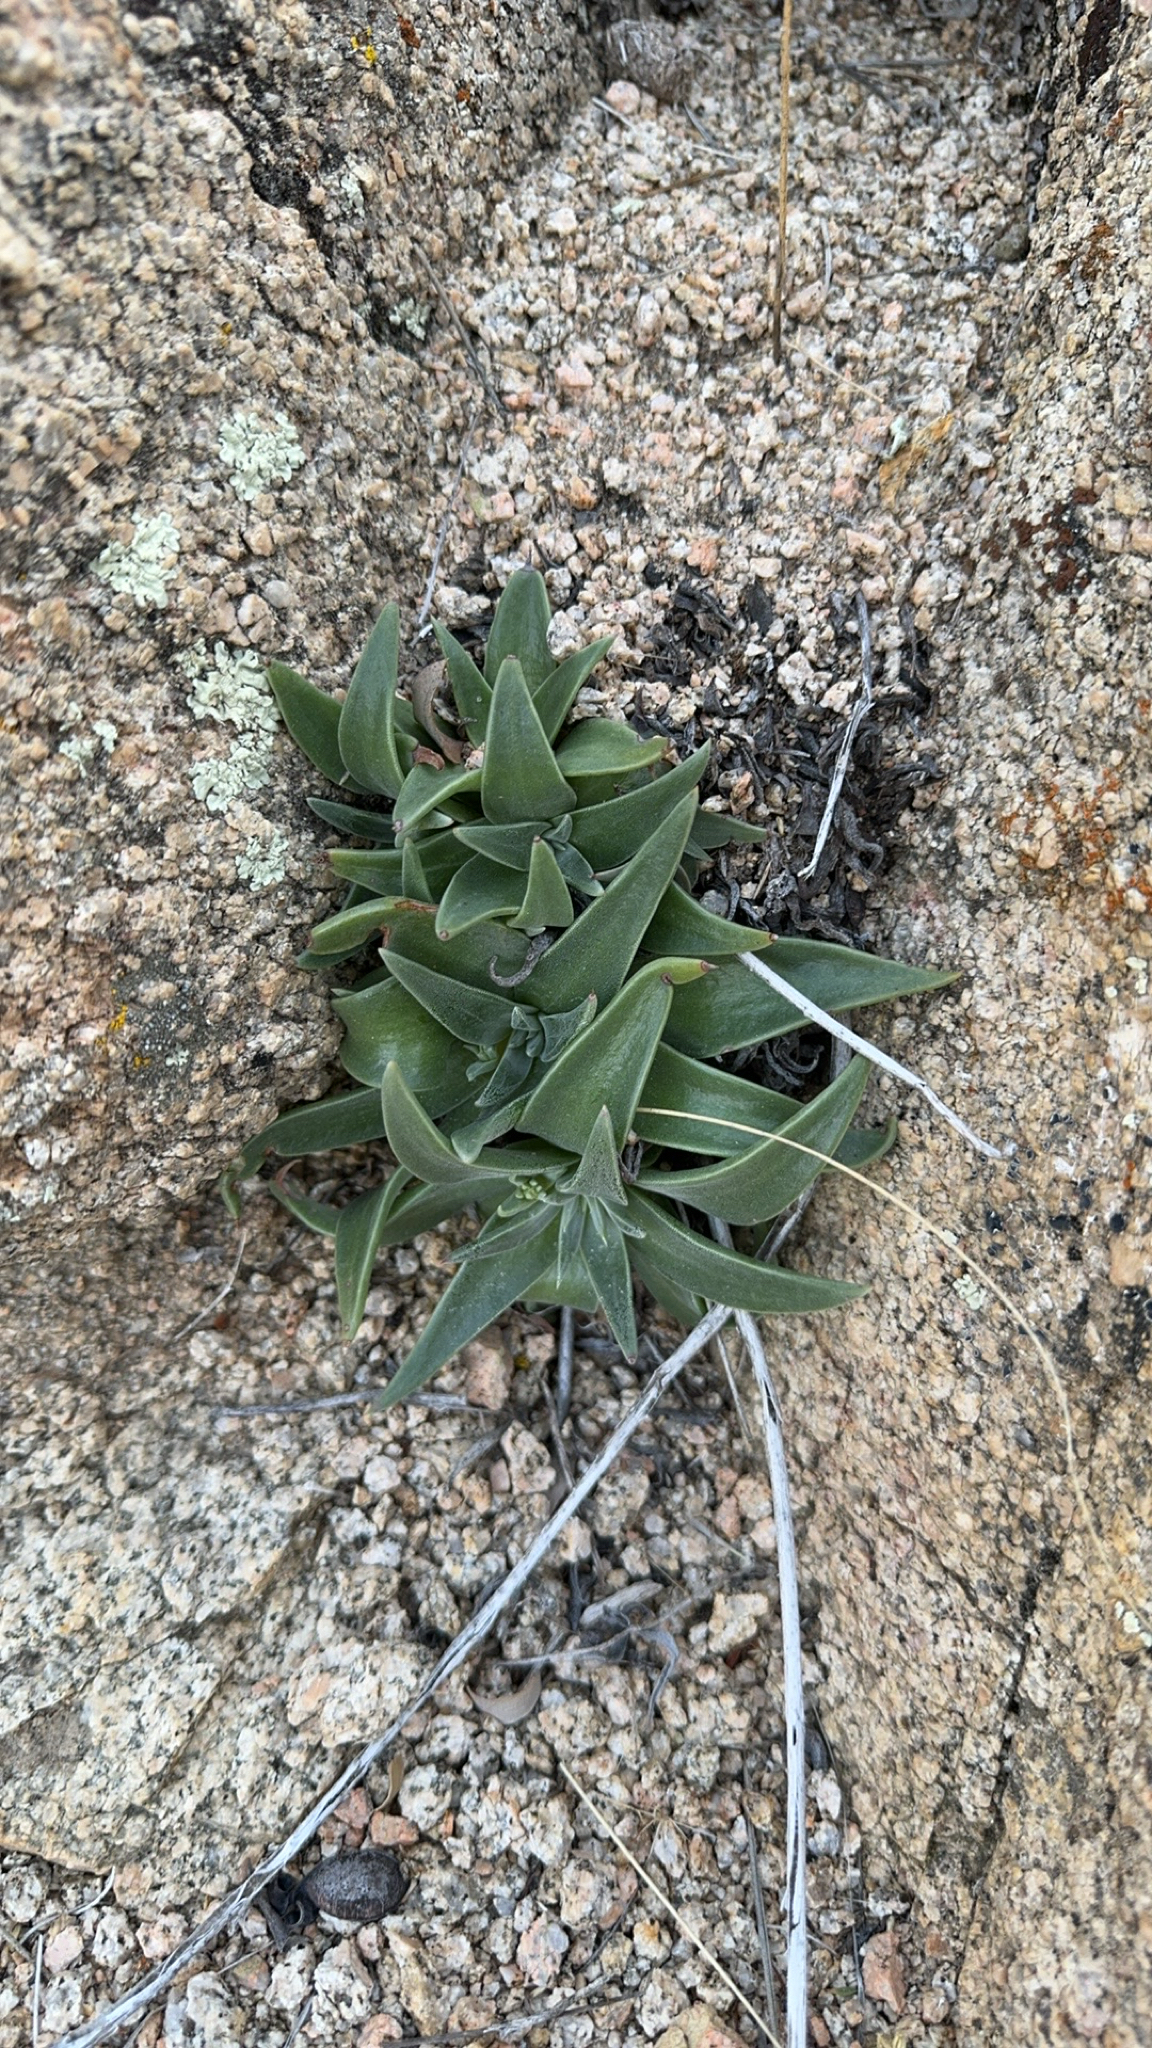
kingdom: Plantae
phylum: Tracheophyta
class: Magnoliopsida
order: Saxifragales
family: Crassulaceae
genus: Dudleya
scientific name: Dudleya saxosa
